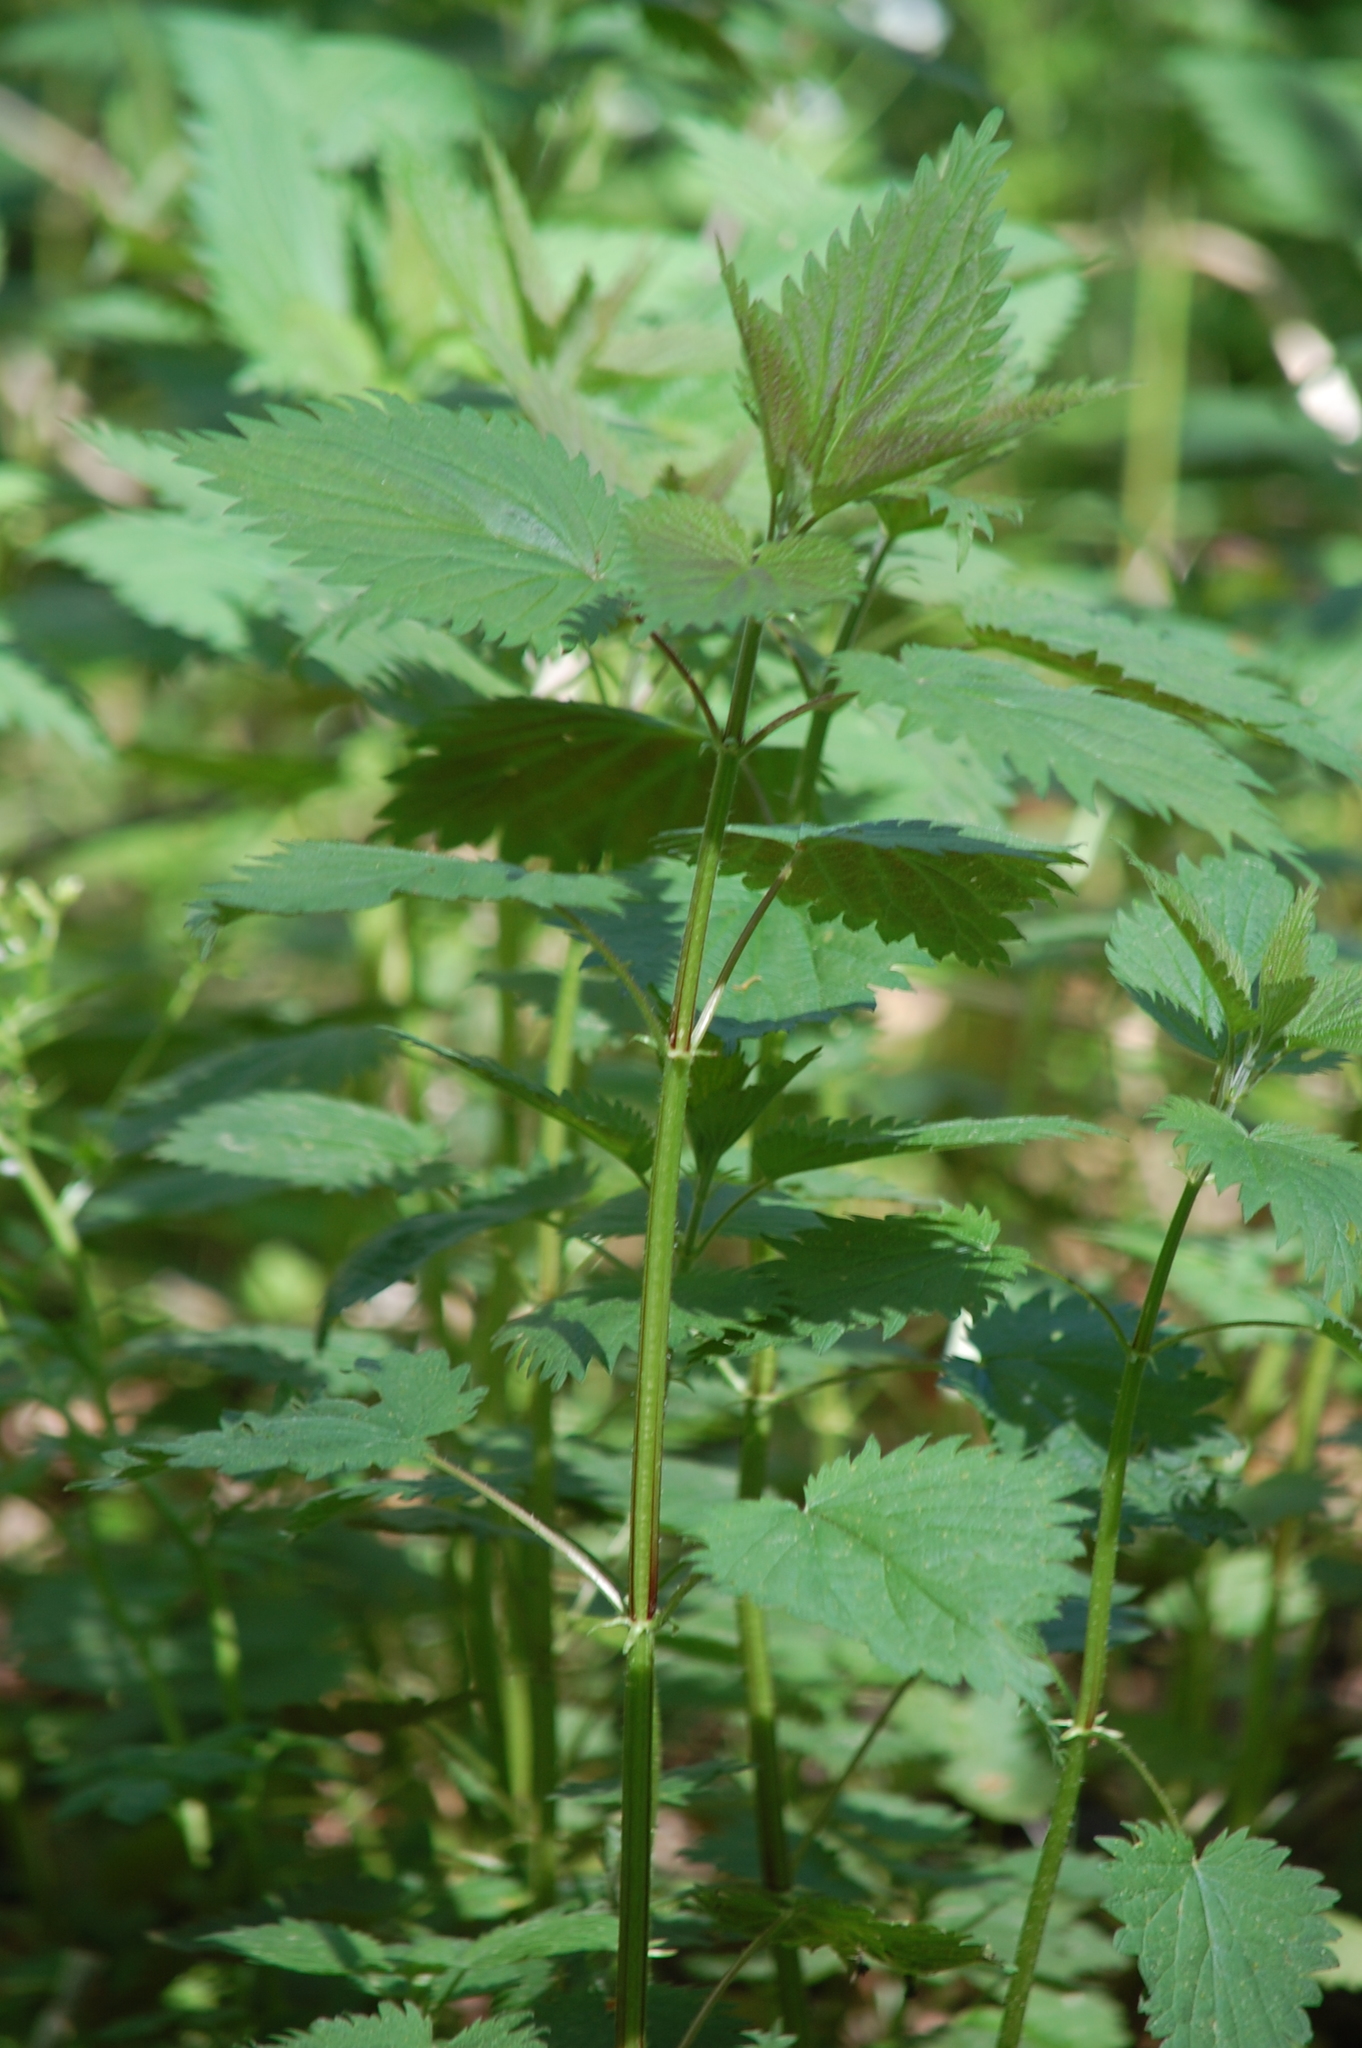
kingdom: Plantae
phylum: Tracheophyta
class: Magnoliopsida
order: Rosales
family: Urticaceae
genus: Urtica
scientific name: Urtica dioica
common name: Common nettle
